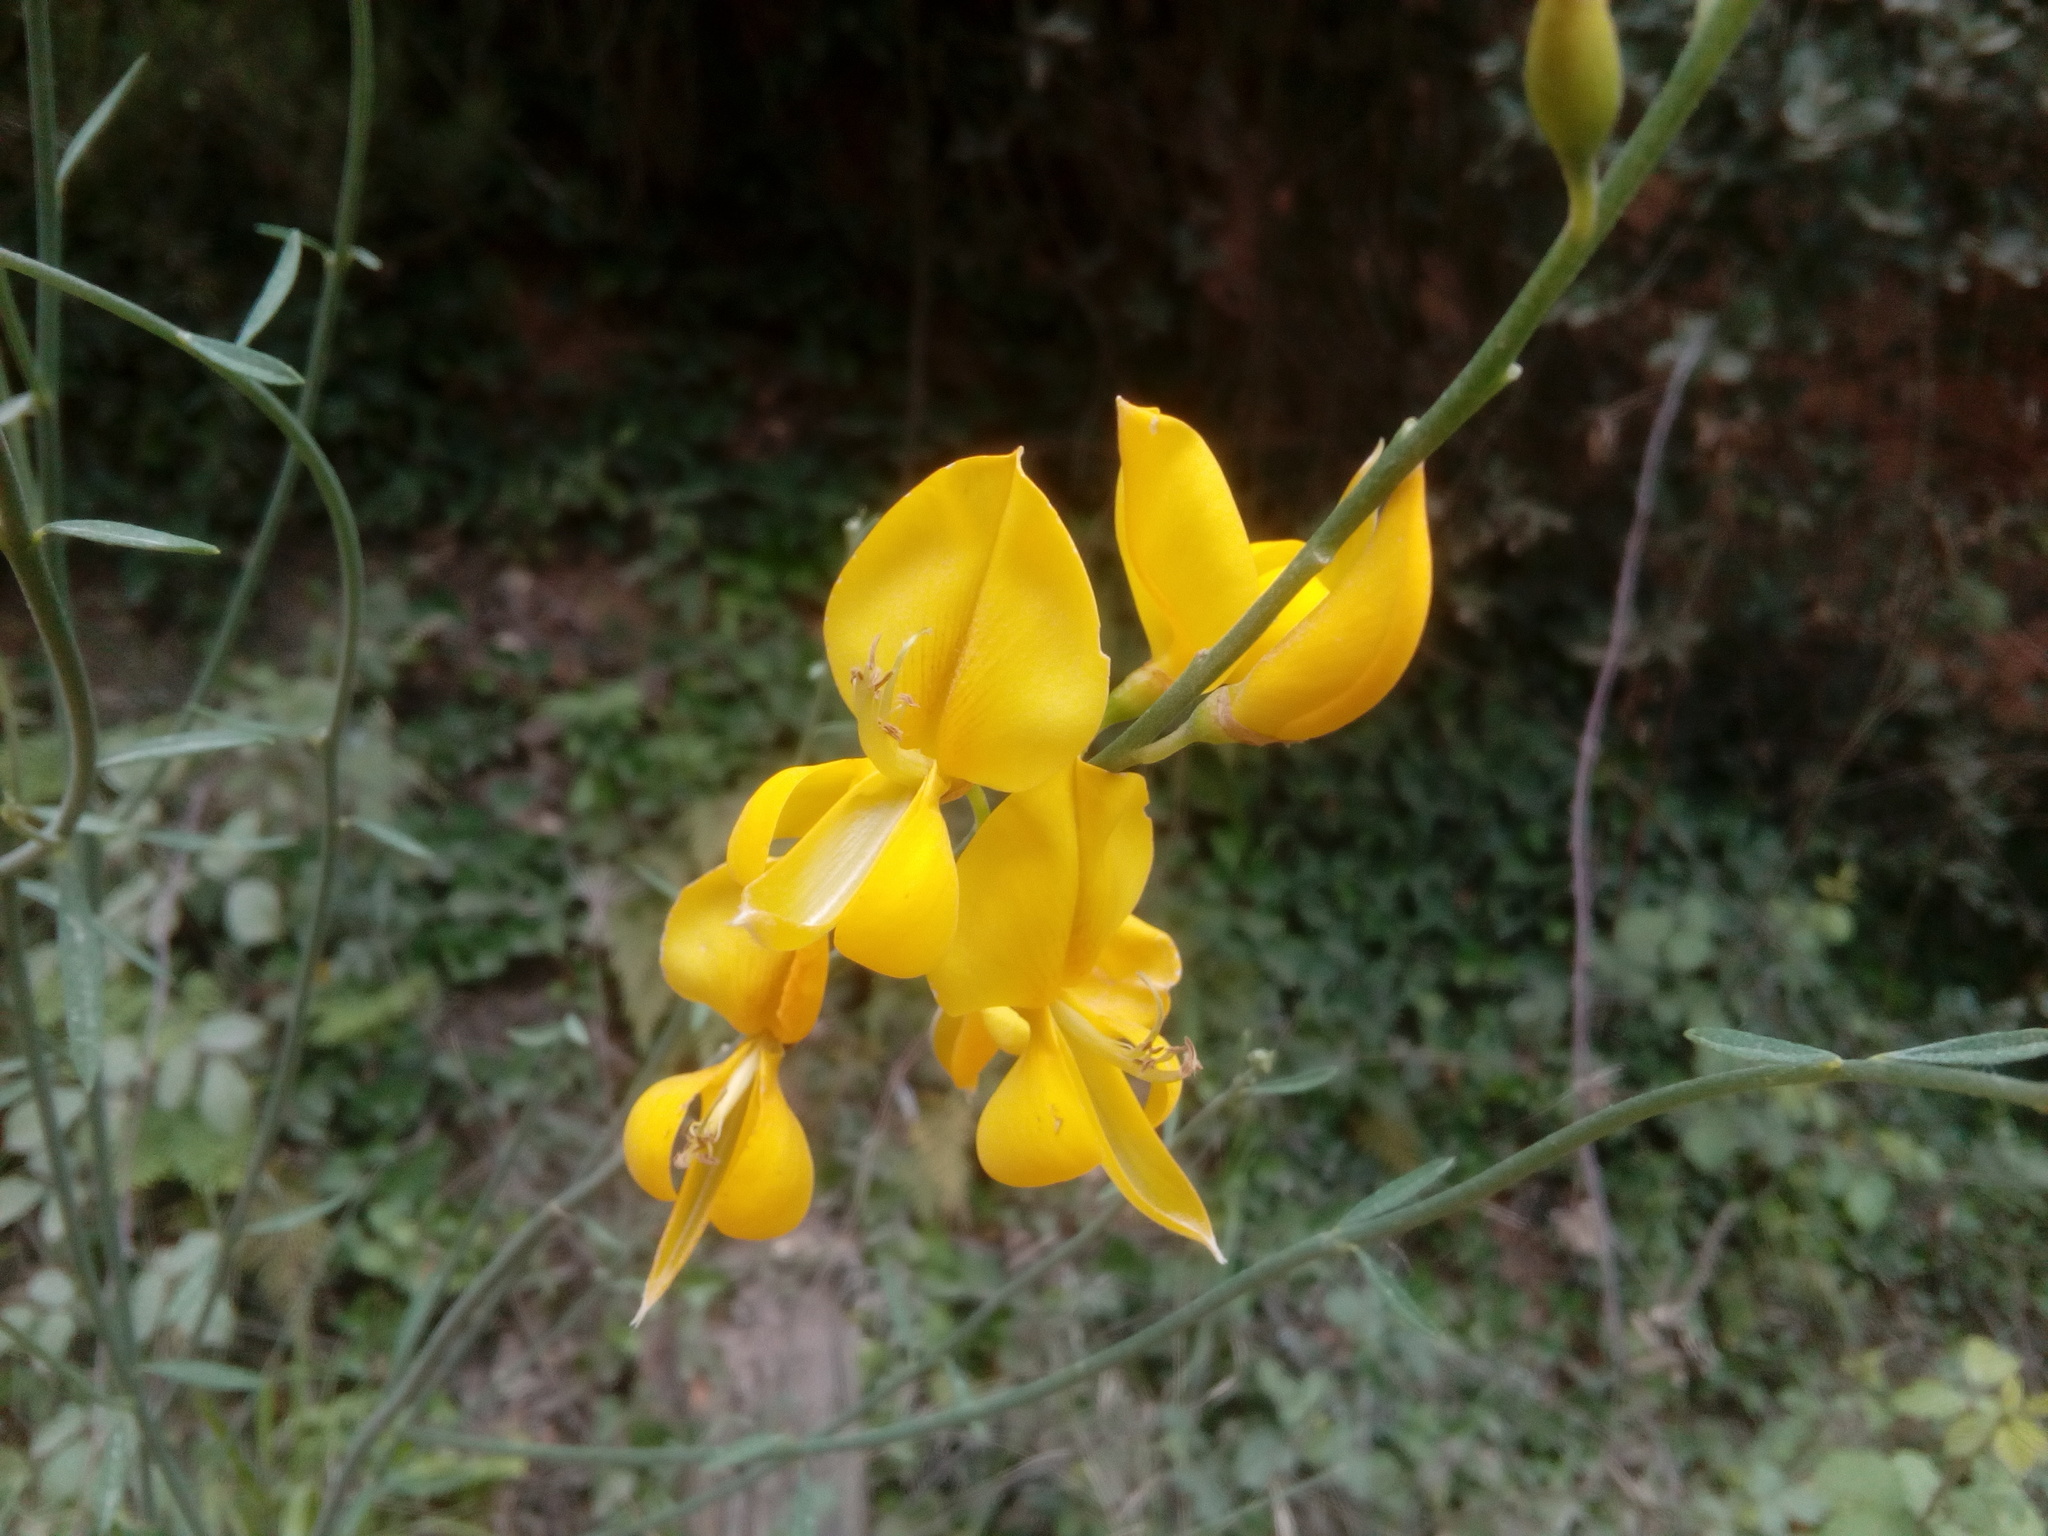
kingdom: Plantae
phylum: Tracheophyta
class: Magnoliopsida
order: Fabales
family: Fabaceae
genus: Spartium
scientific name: Spartium junceum
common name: Spanish broom
